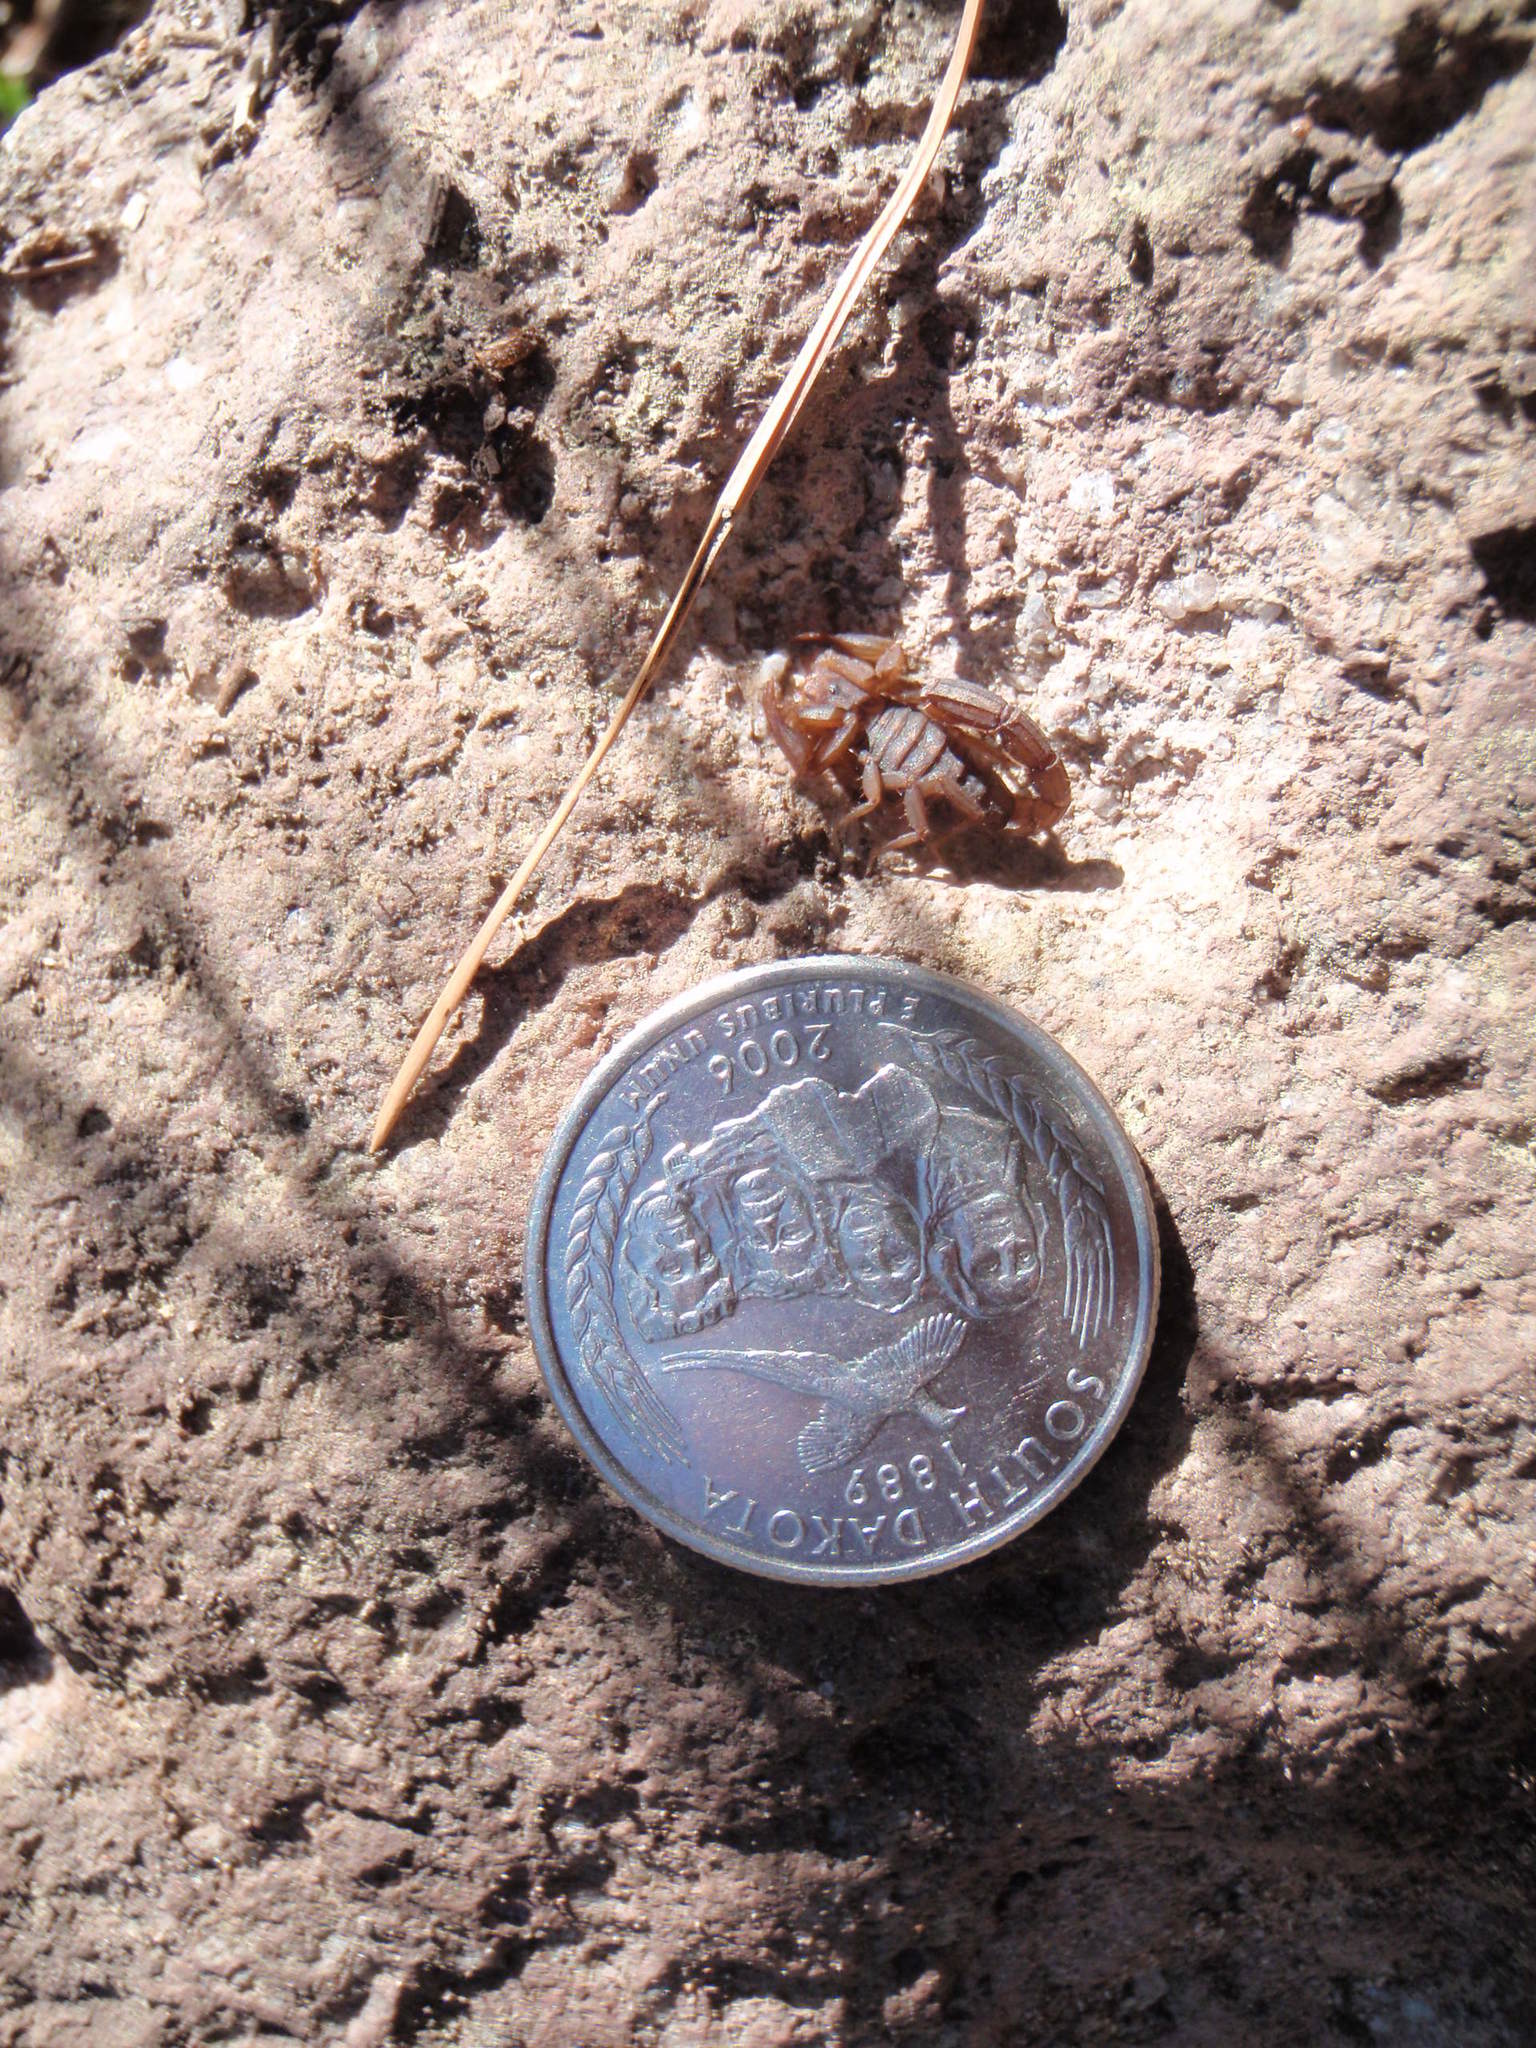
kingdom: Animalia
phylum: Arthropoda
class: Arachnida
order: Scorpiones
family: Vaejovidae
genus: Vaejovis
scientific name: Vaejovis cashi
